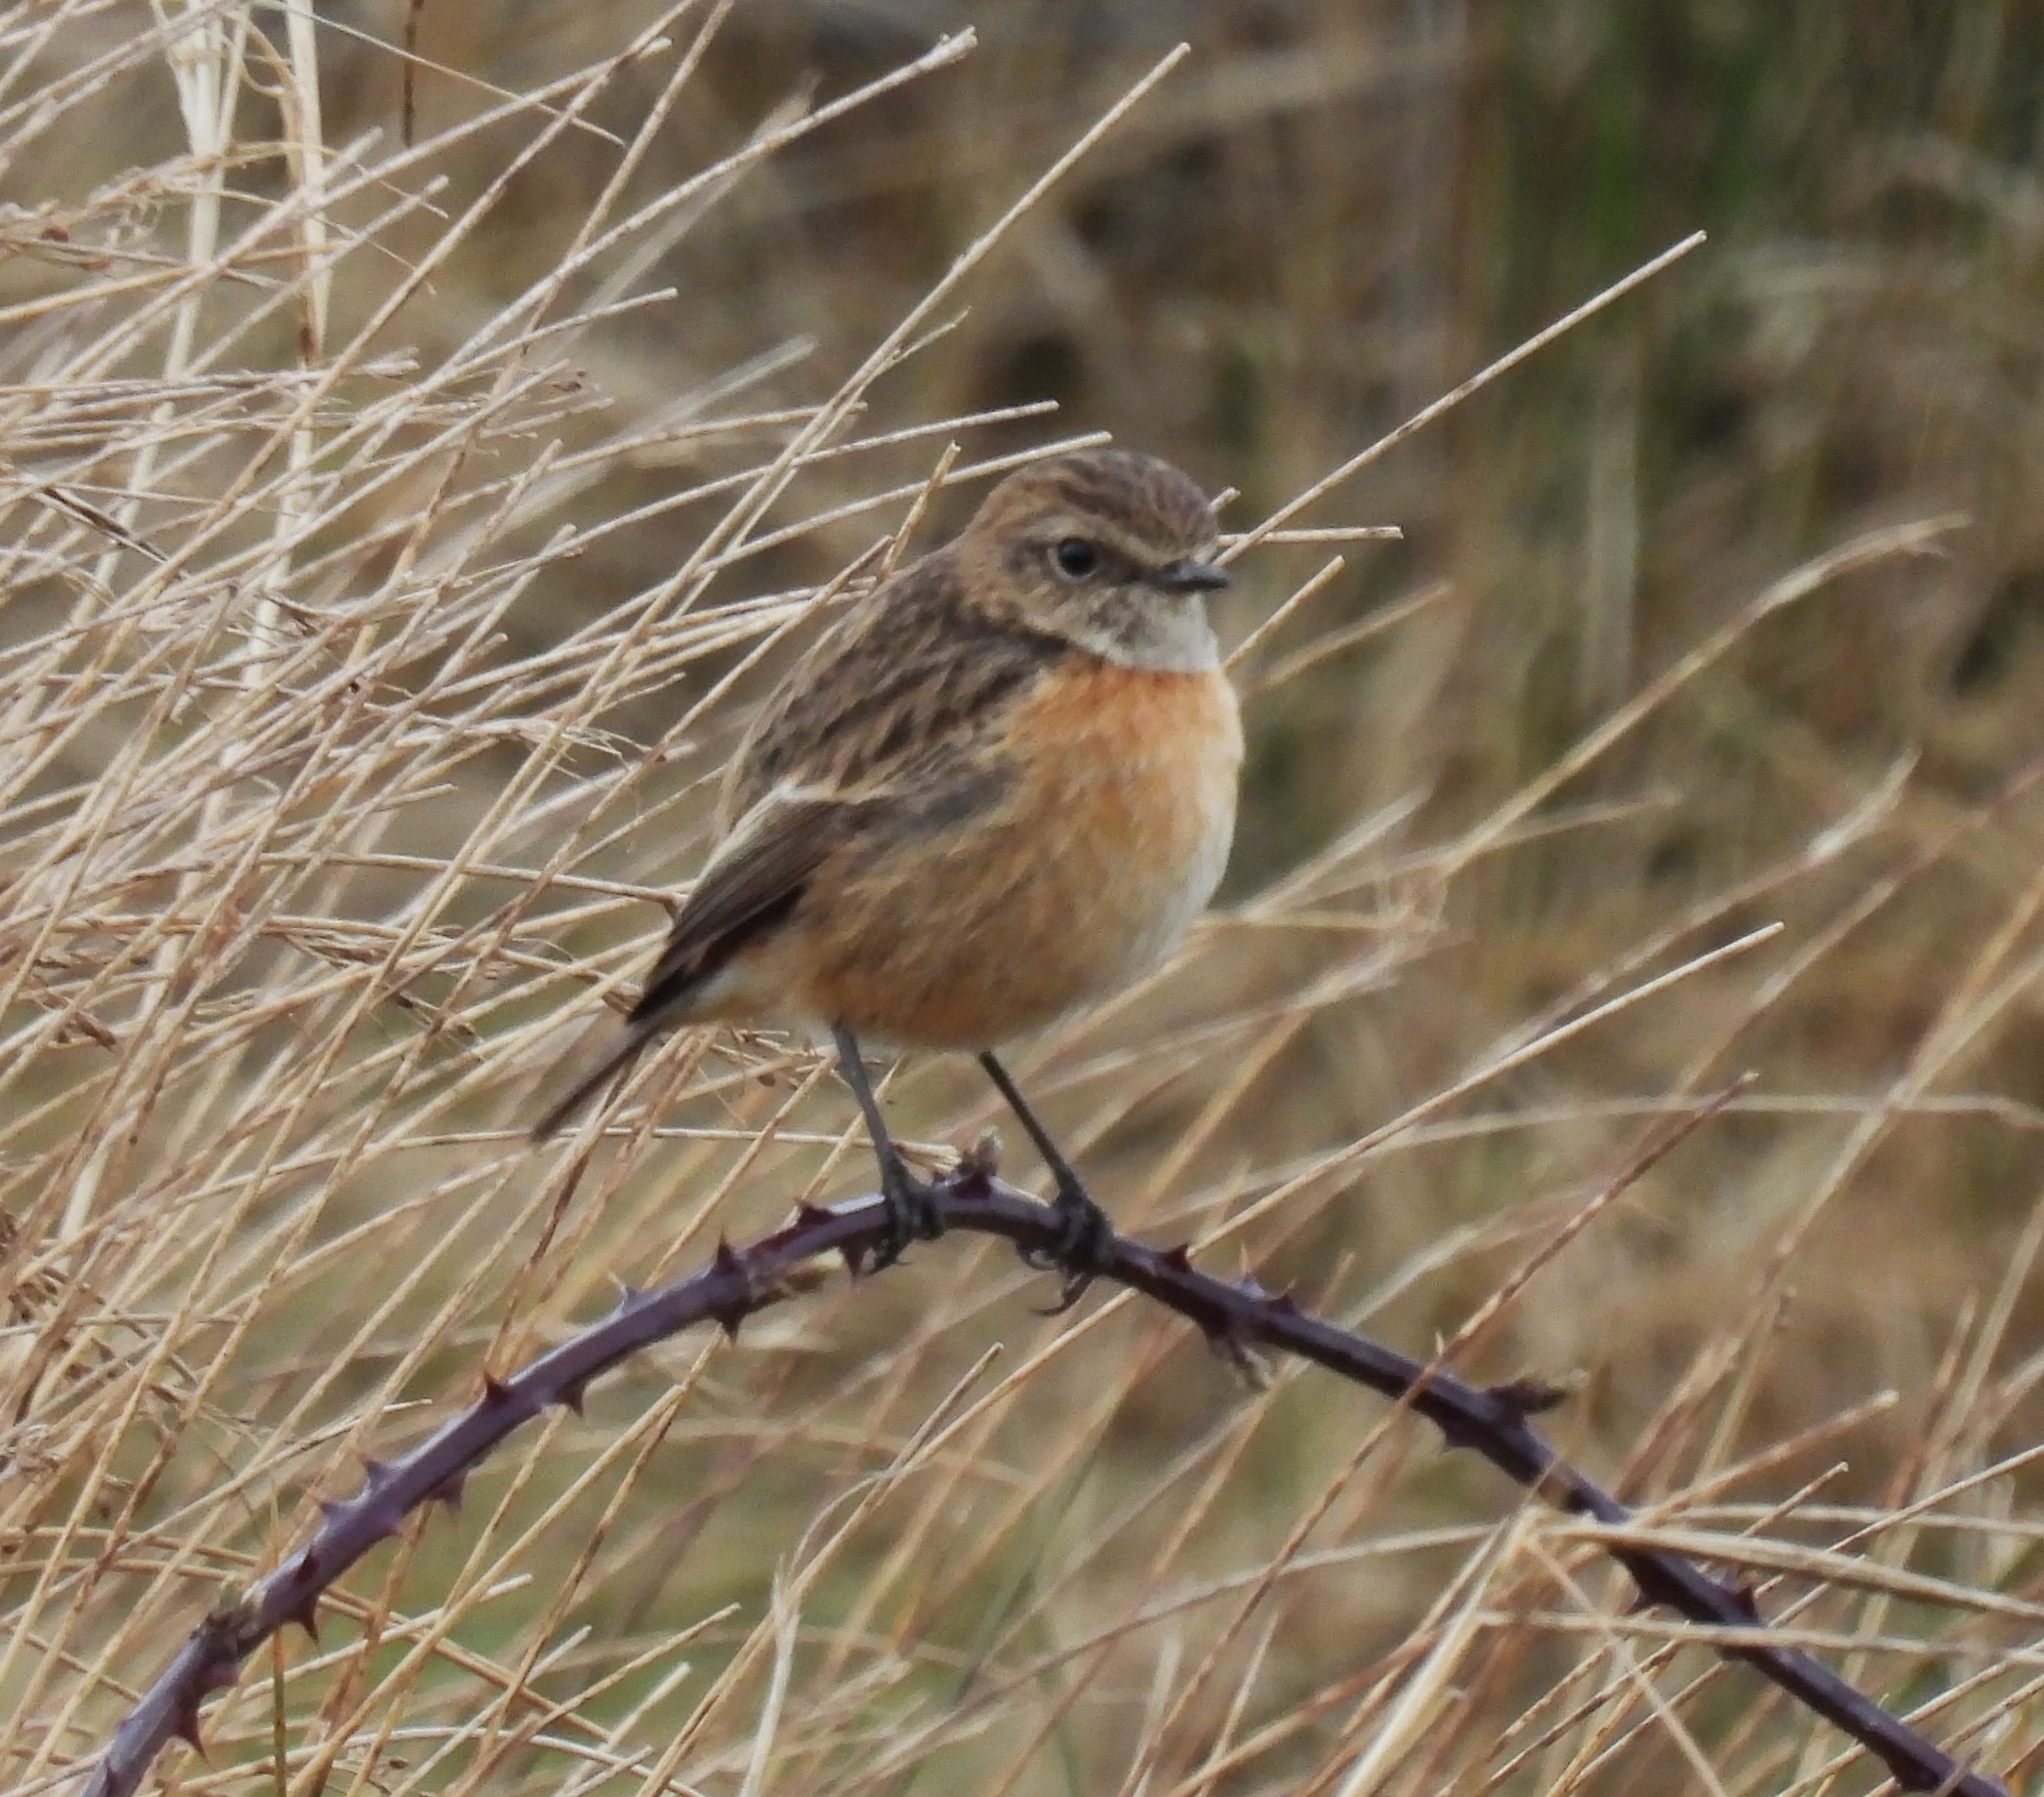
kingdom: Animalia
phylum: Chordata
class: Aves
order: Passeriformes
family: Muscicapidae
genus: Saxicola
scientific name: Saxicola rubicola
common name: European stonechat
